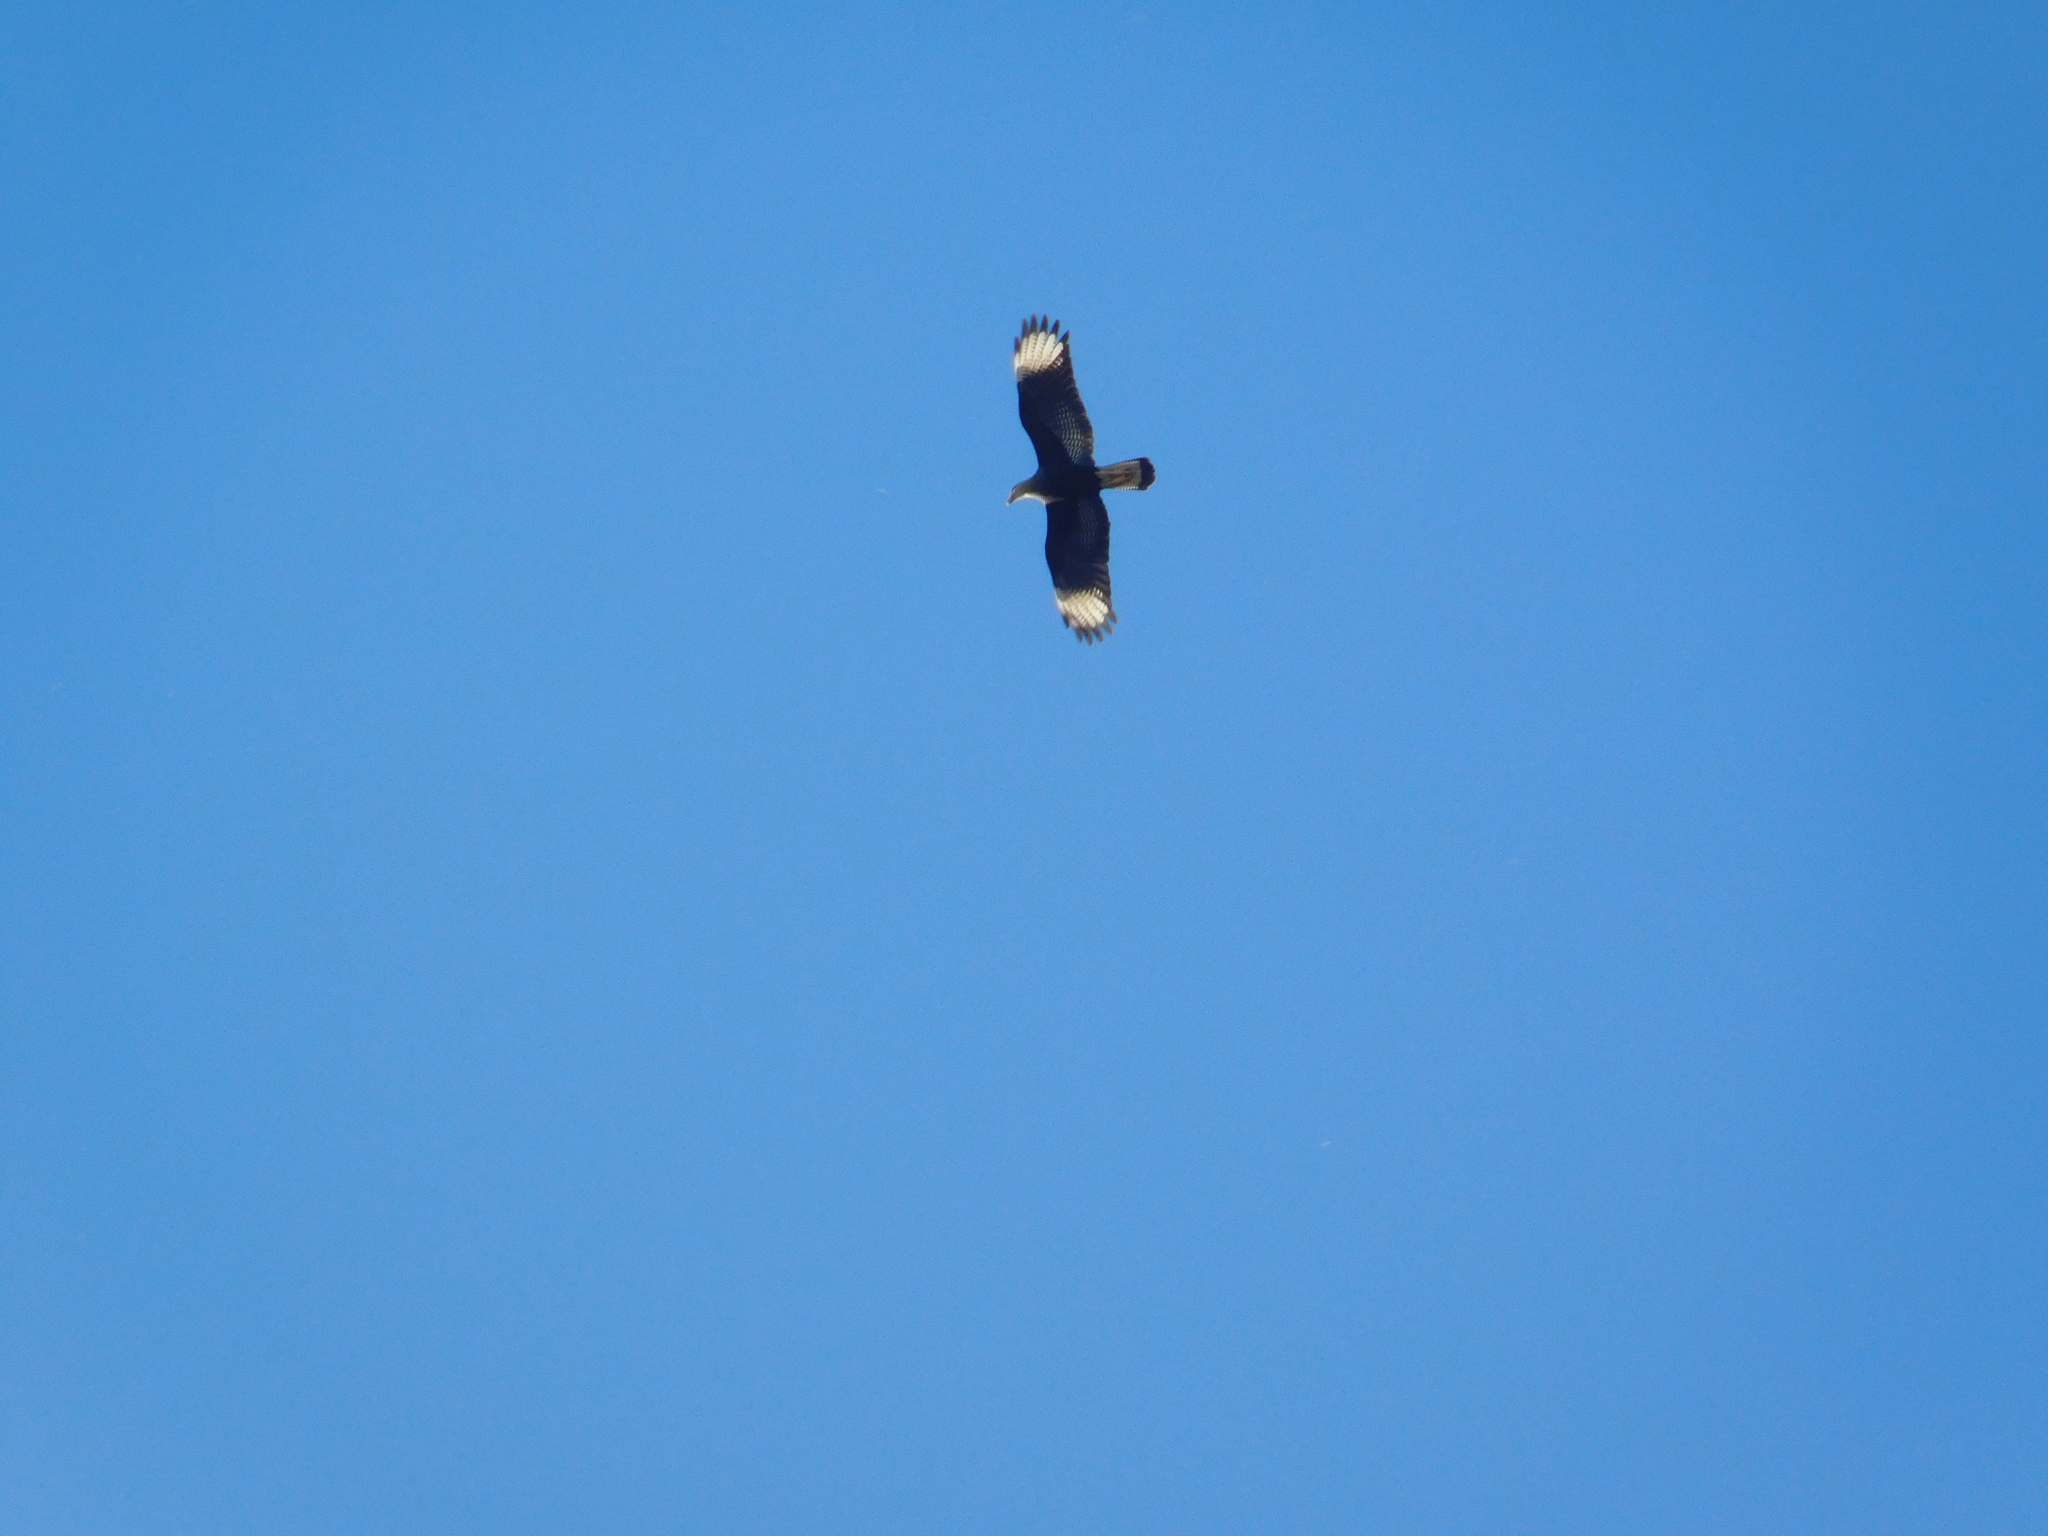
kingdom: Animalia
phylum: Chordata
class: Aves
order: Falconiformes
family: Falconidae
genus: Caracara
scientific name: Caracara plancus
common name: Southern caracara
